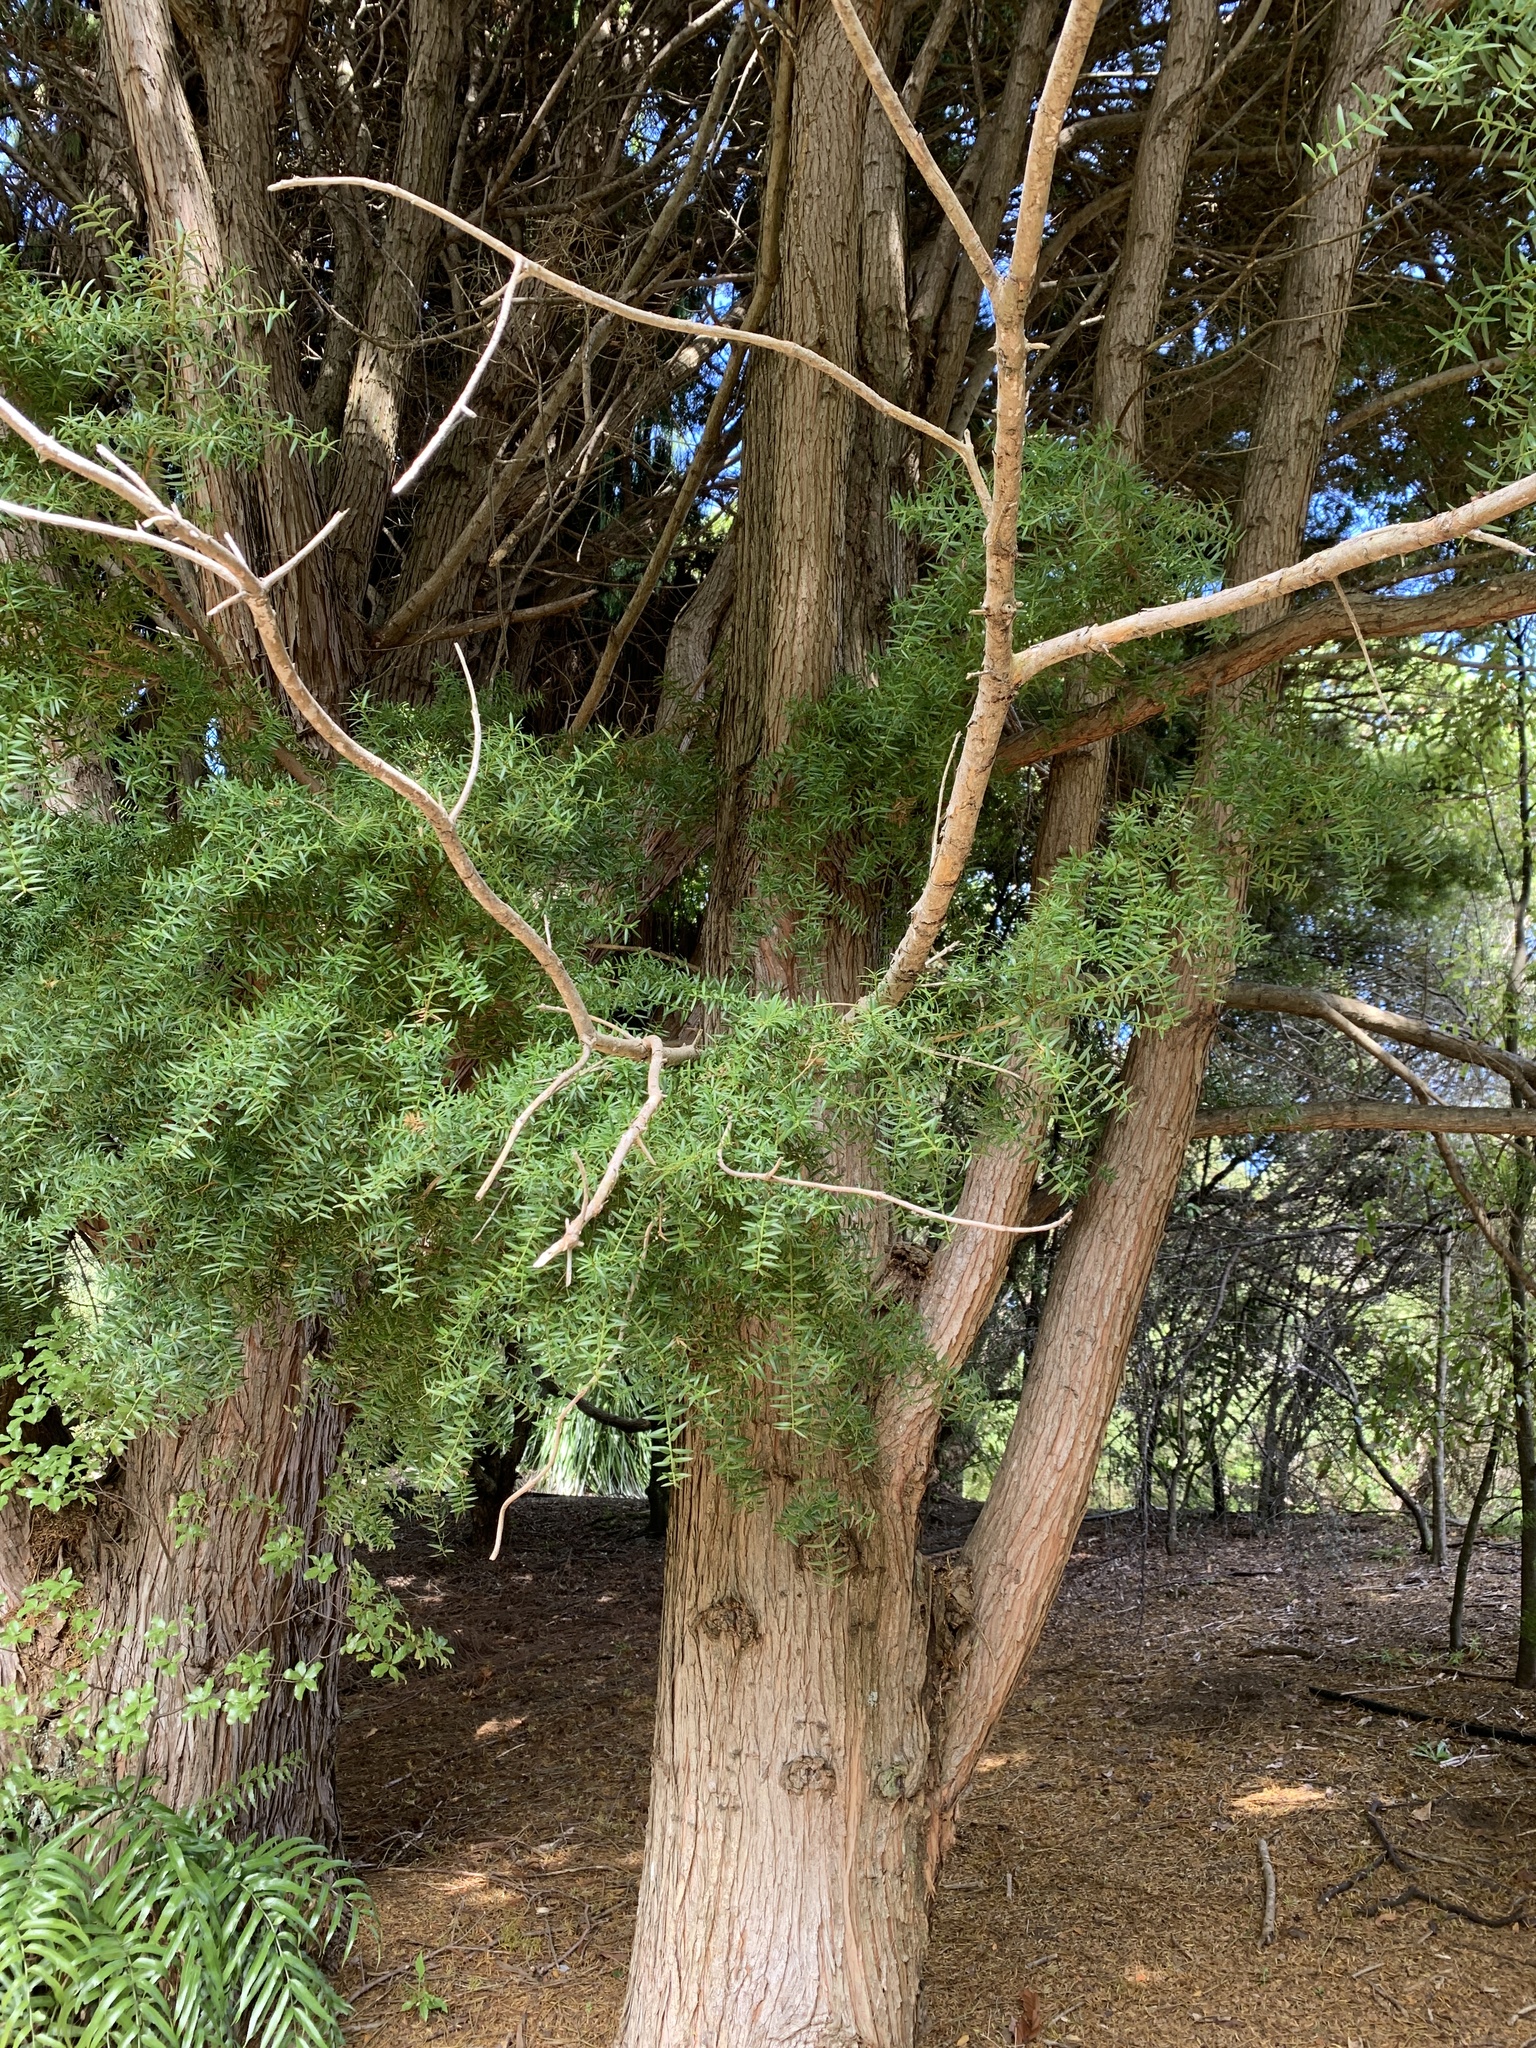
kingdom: Plantae
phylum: Tracheophyta
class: Pinopsida
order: Pinales
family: Podocarpaceae
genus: Podocarpus
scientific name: Podocarpus laetus
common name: Hall's totara
